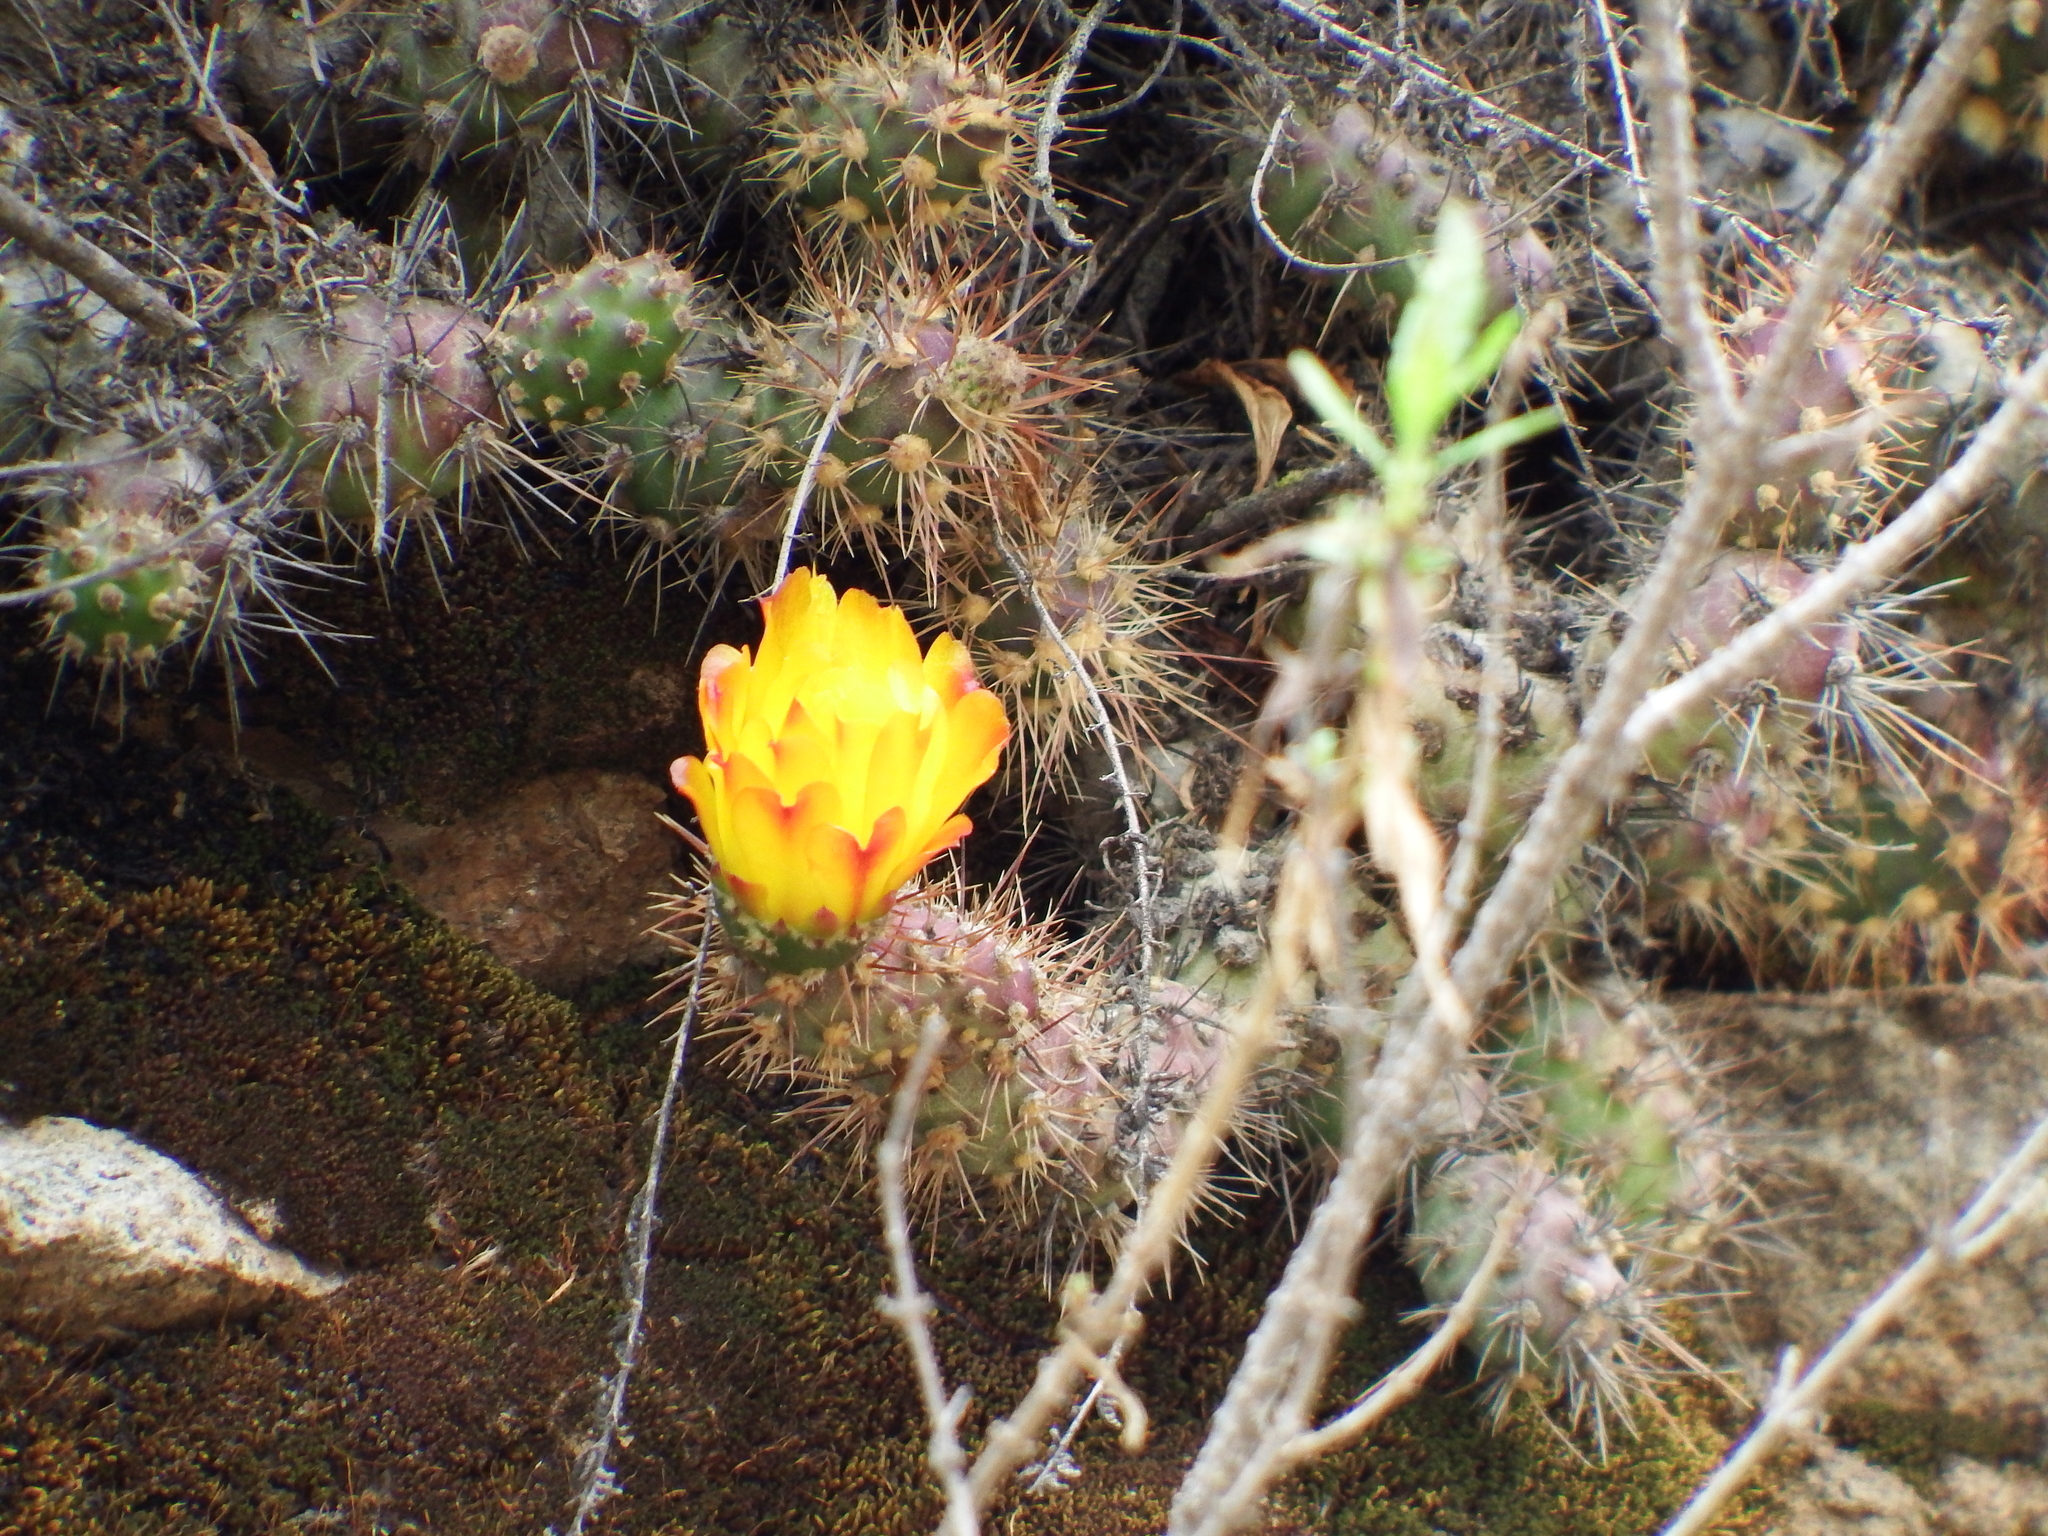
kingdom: Plantae
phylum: Tracheophyta
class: Magnoliopsida
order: Caryophyllales
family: Cactaceae
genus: Cumulopuntia
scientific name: Cumulopuntia leucophaea
